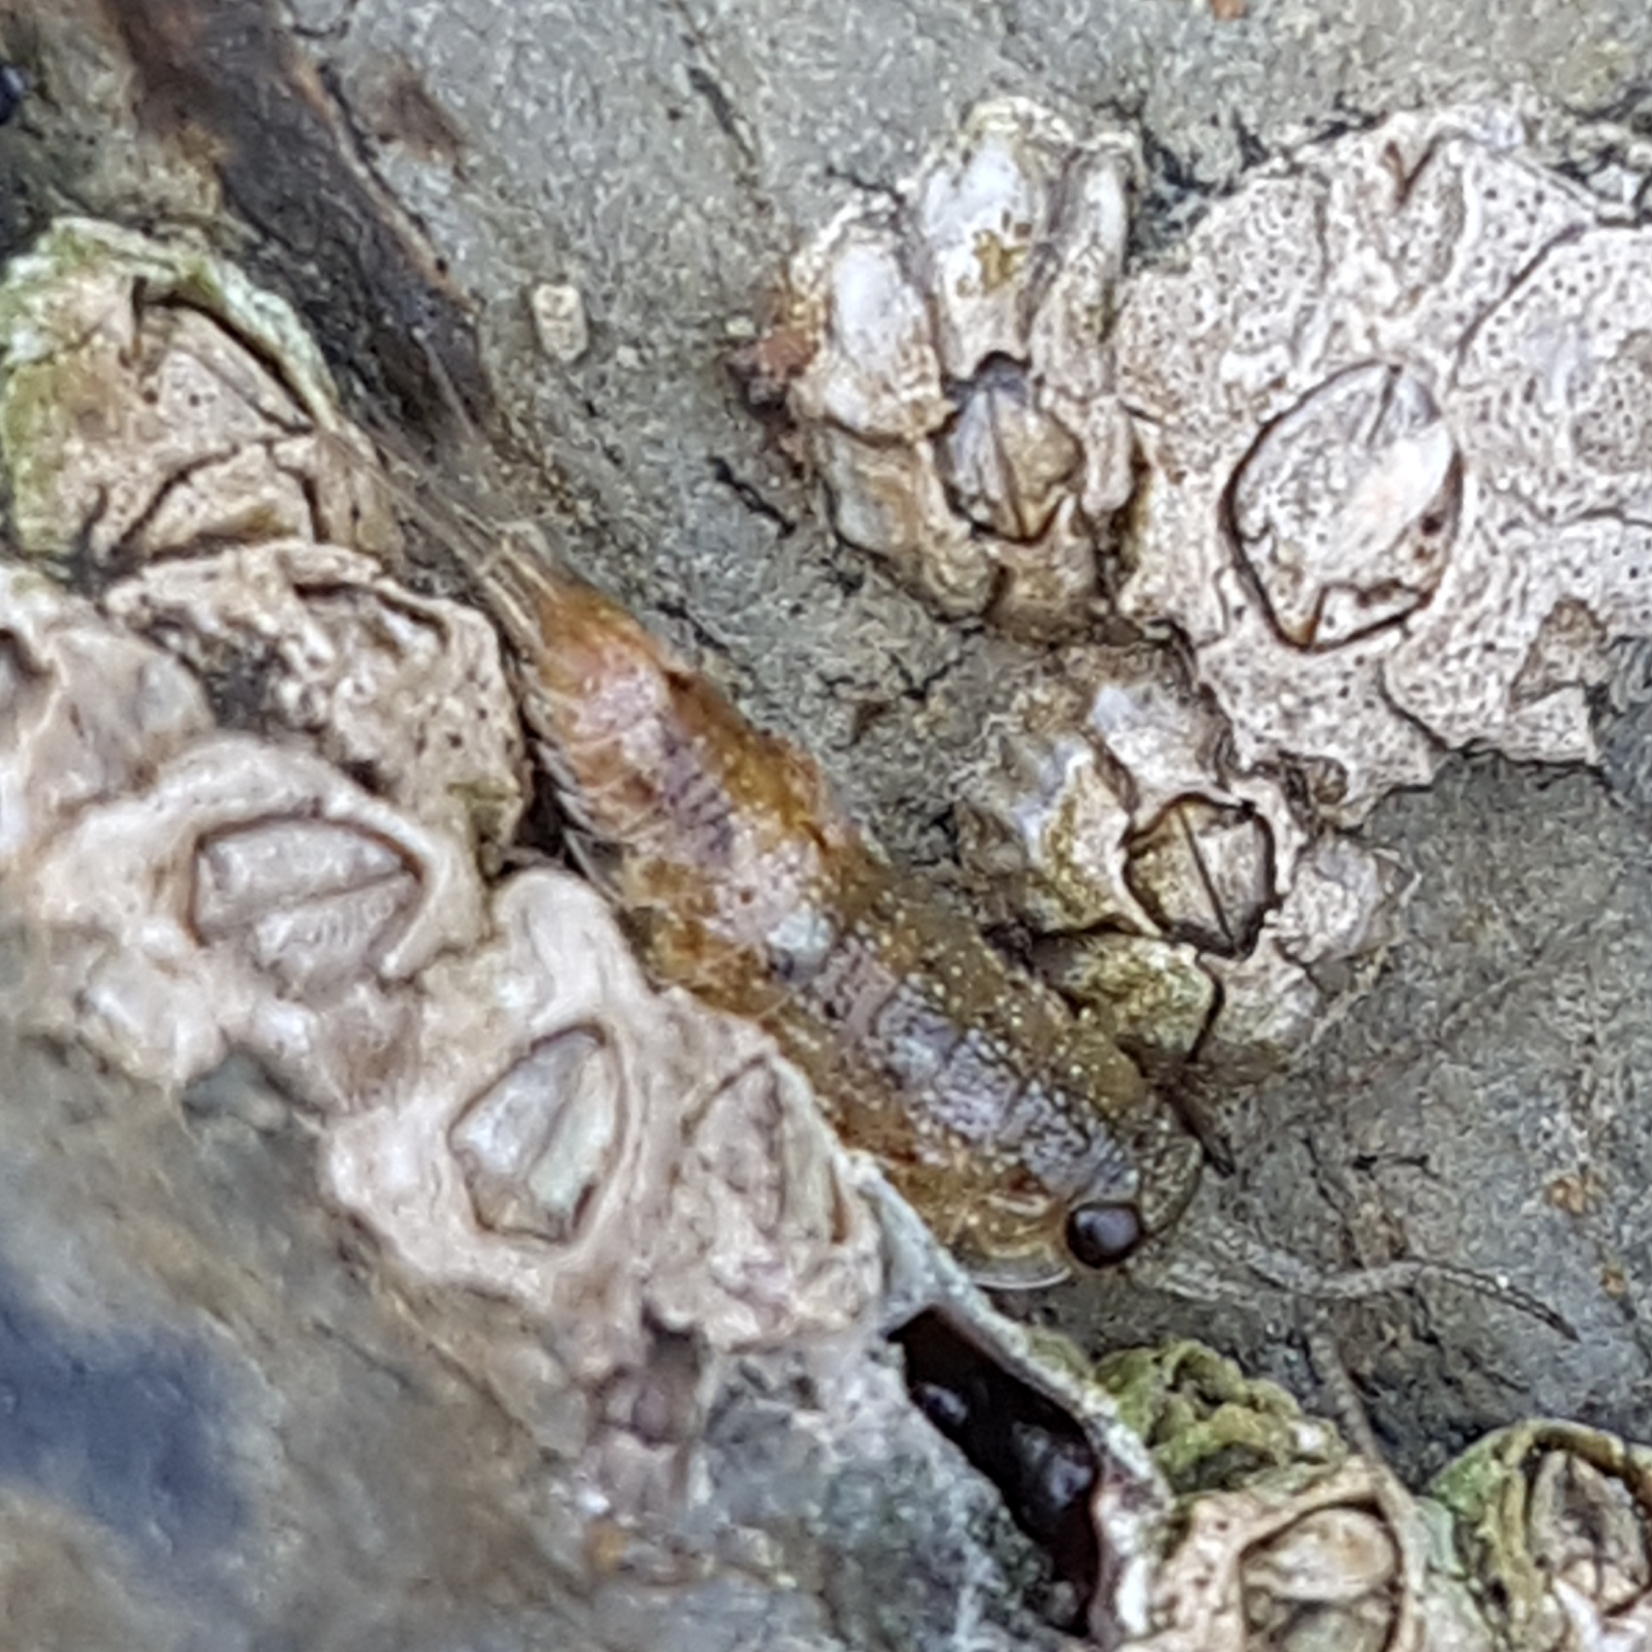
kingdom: Animalia
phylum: Arthropoda
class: Malacostraca
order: Isopoda
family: Ligiidae
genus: Ligia
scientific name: Ligia oceanica
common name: Sea slater
